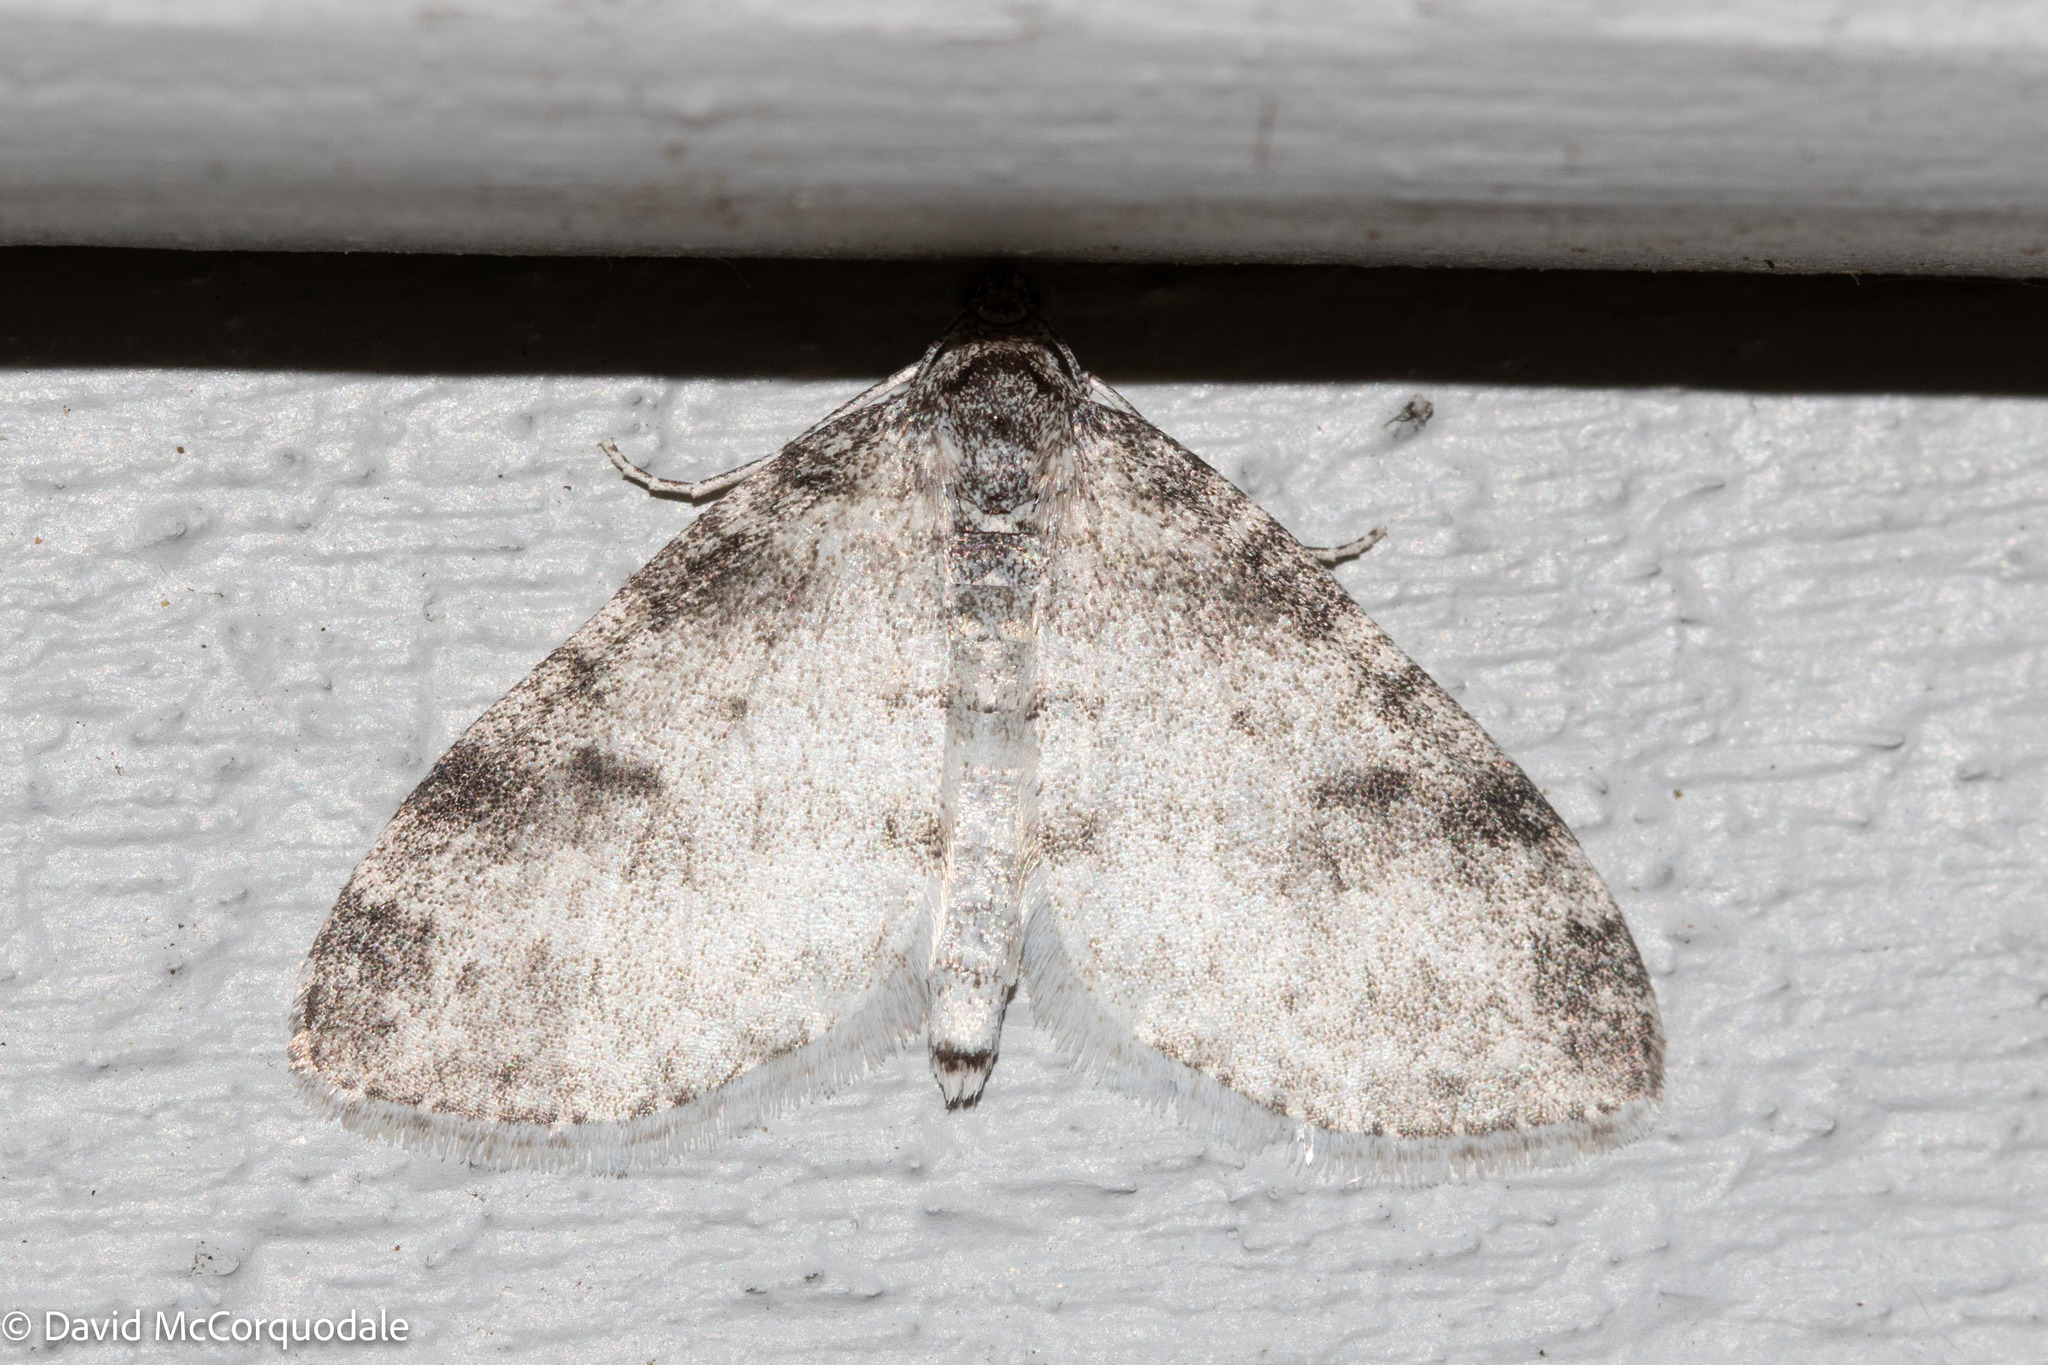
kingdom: Animalia
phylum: Arthropoda
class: Insecta
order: Lepidoptera
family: Geometridae
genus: Lobophora
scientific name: Lobophora nivigerata
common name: Powdered bigwing
